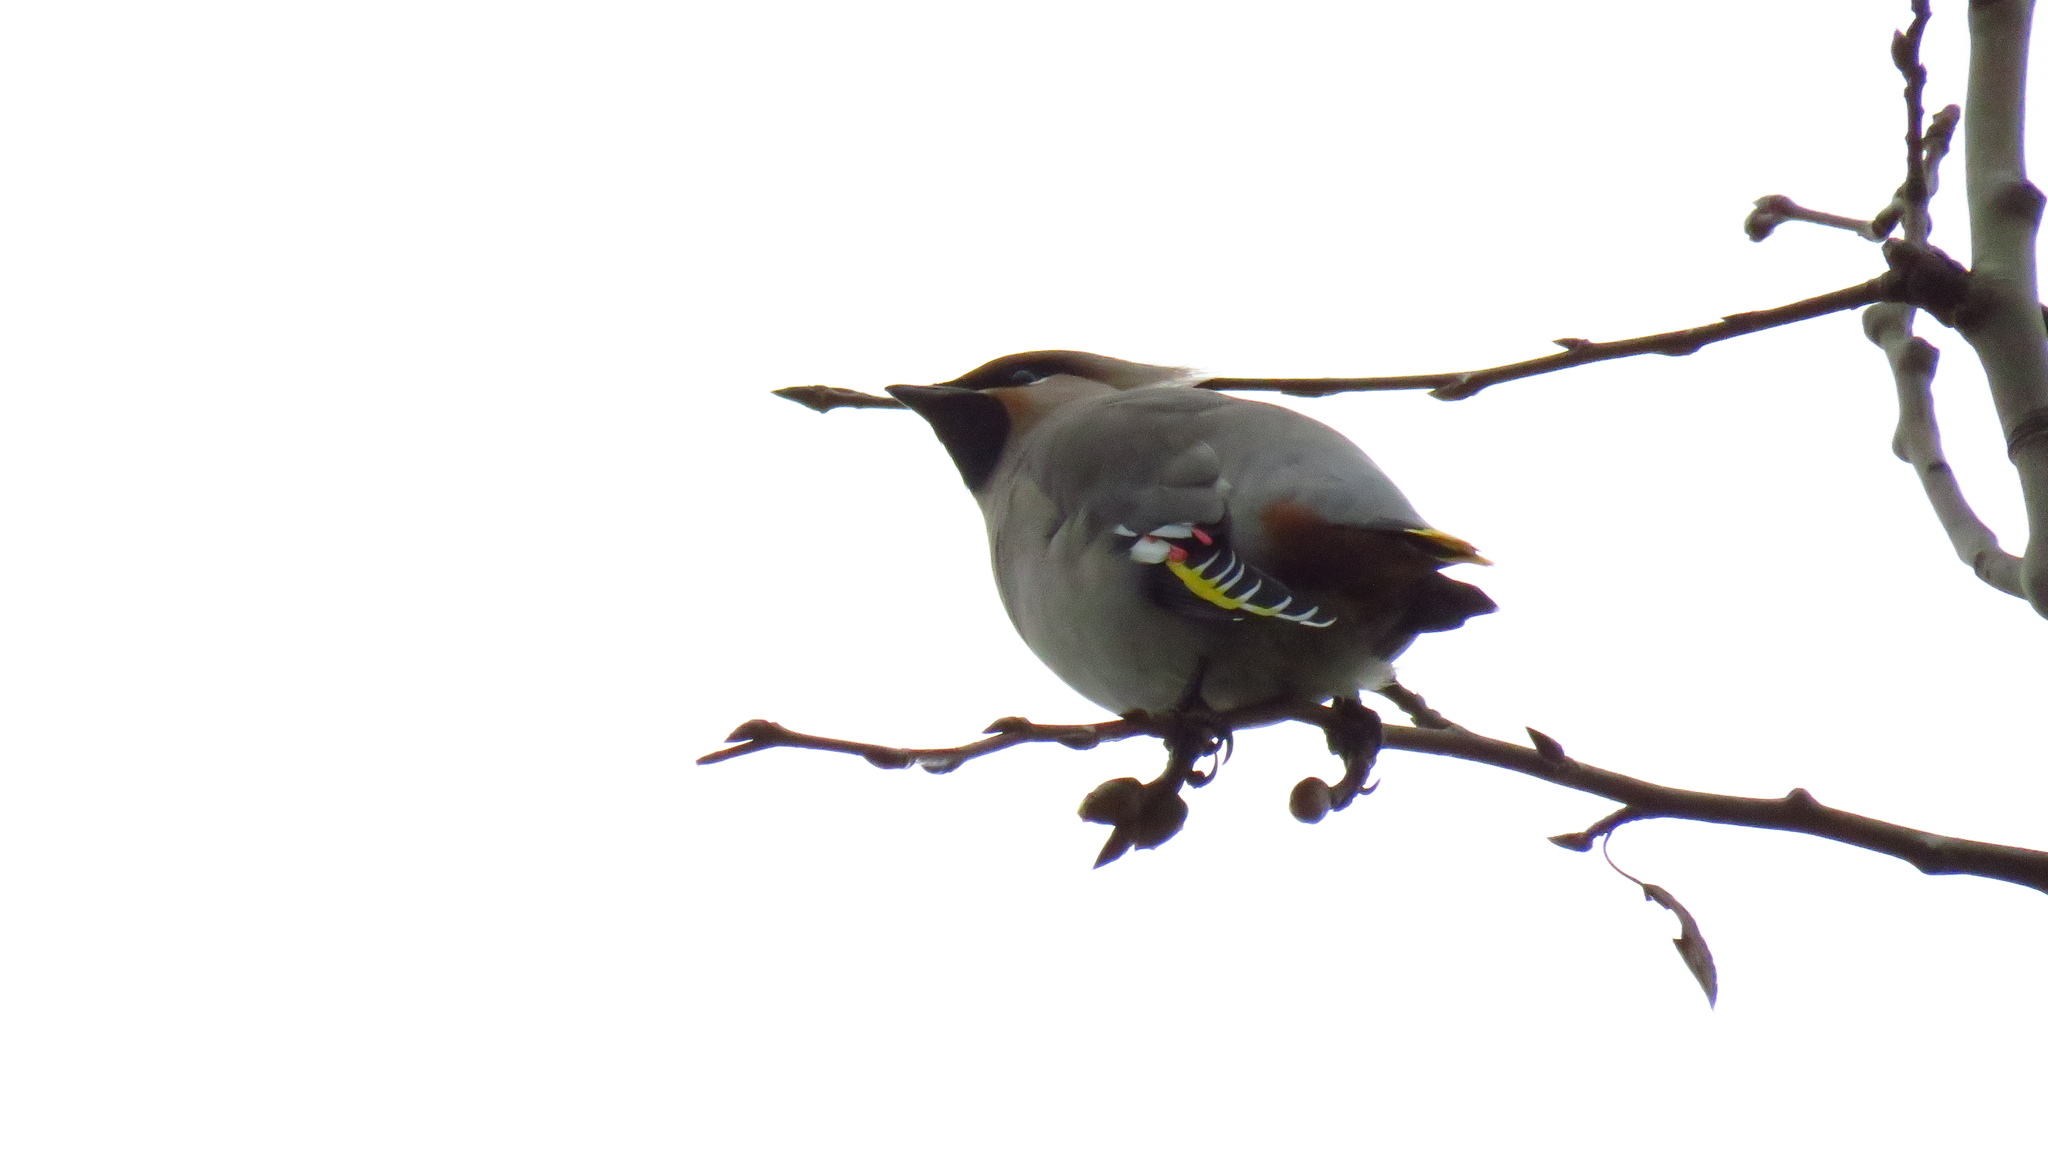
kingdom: Animalia
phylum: Chordata
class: Aves
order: Passeriformes
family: Bombycillidae
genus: Bombycilla
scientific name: Bombycilla garrulus
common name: Bohemian waxwing
